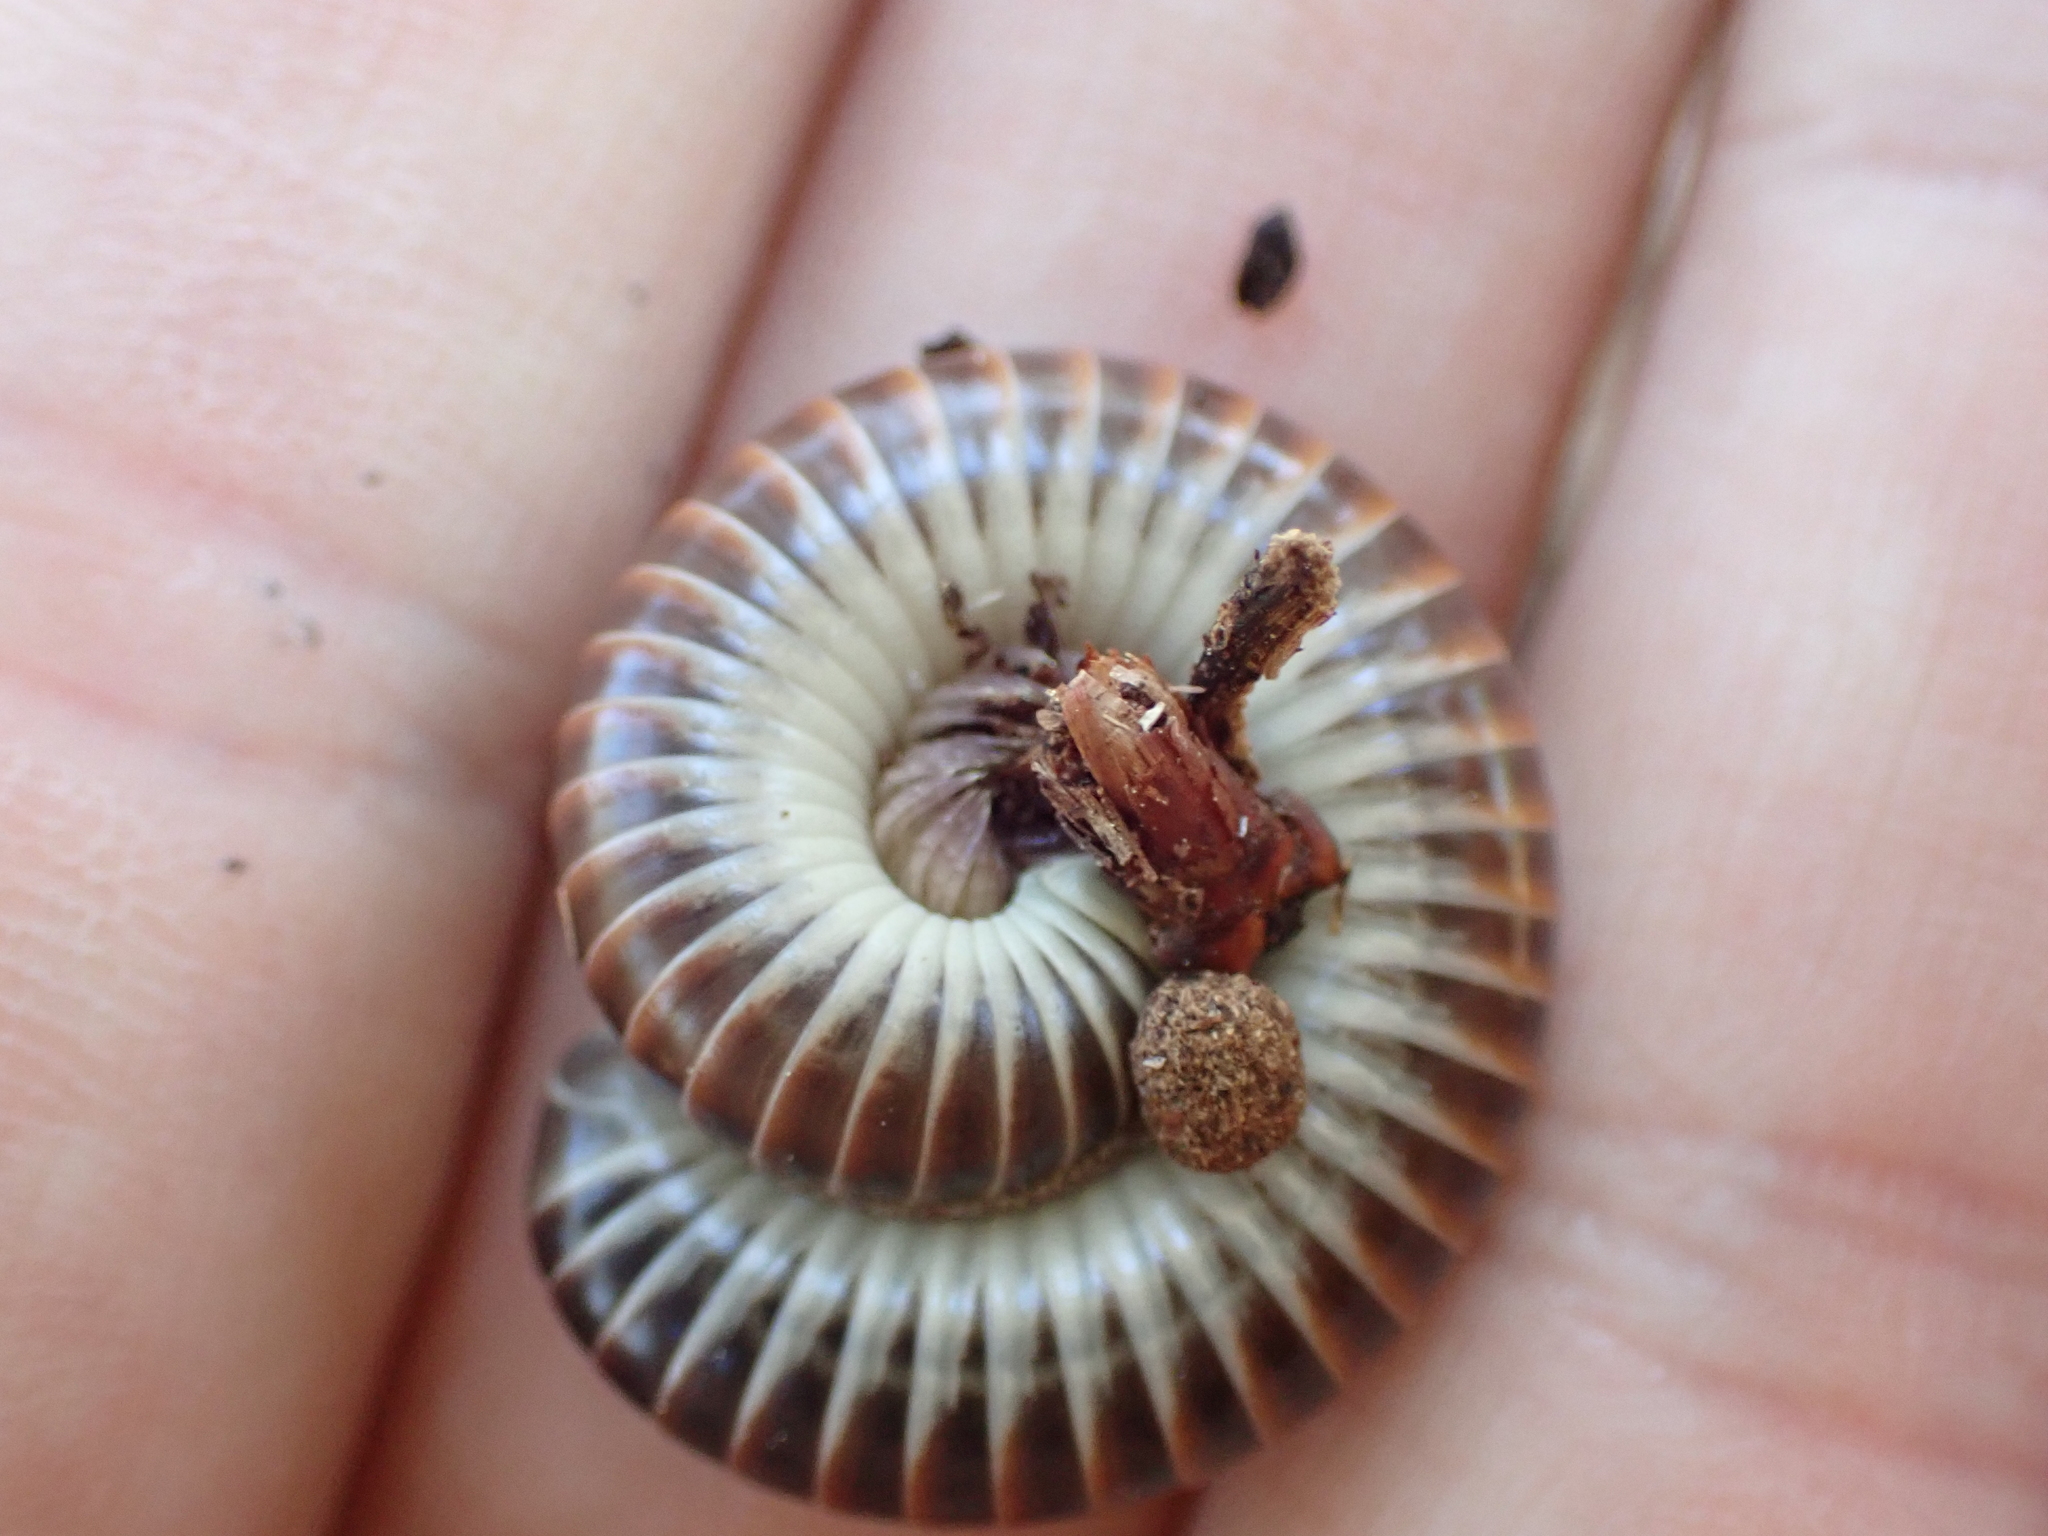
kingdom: Animalia
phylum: Arthropoda
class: Diplopoda
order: Spirobolida
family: Spirobolidae
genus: Chicobolus
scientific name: Chicobolus spinigerus
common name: Florida ivory millipede
